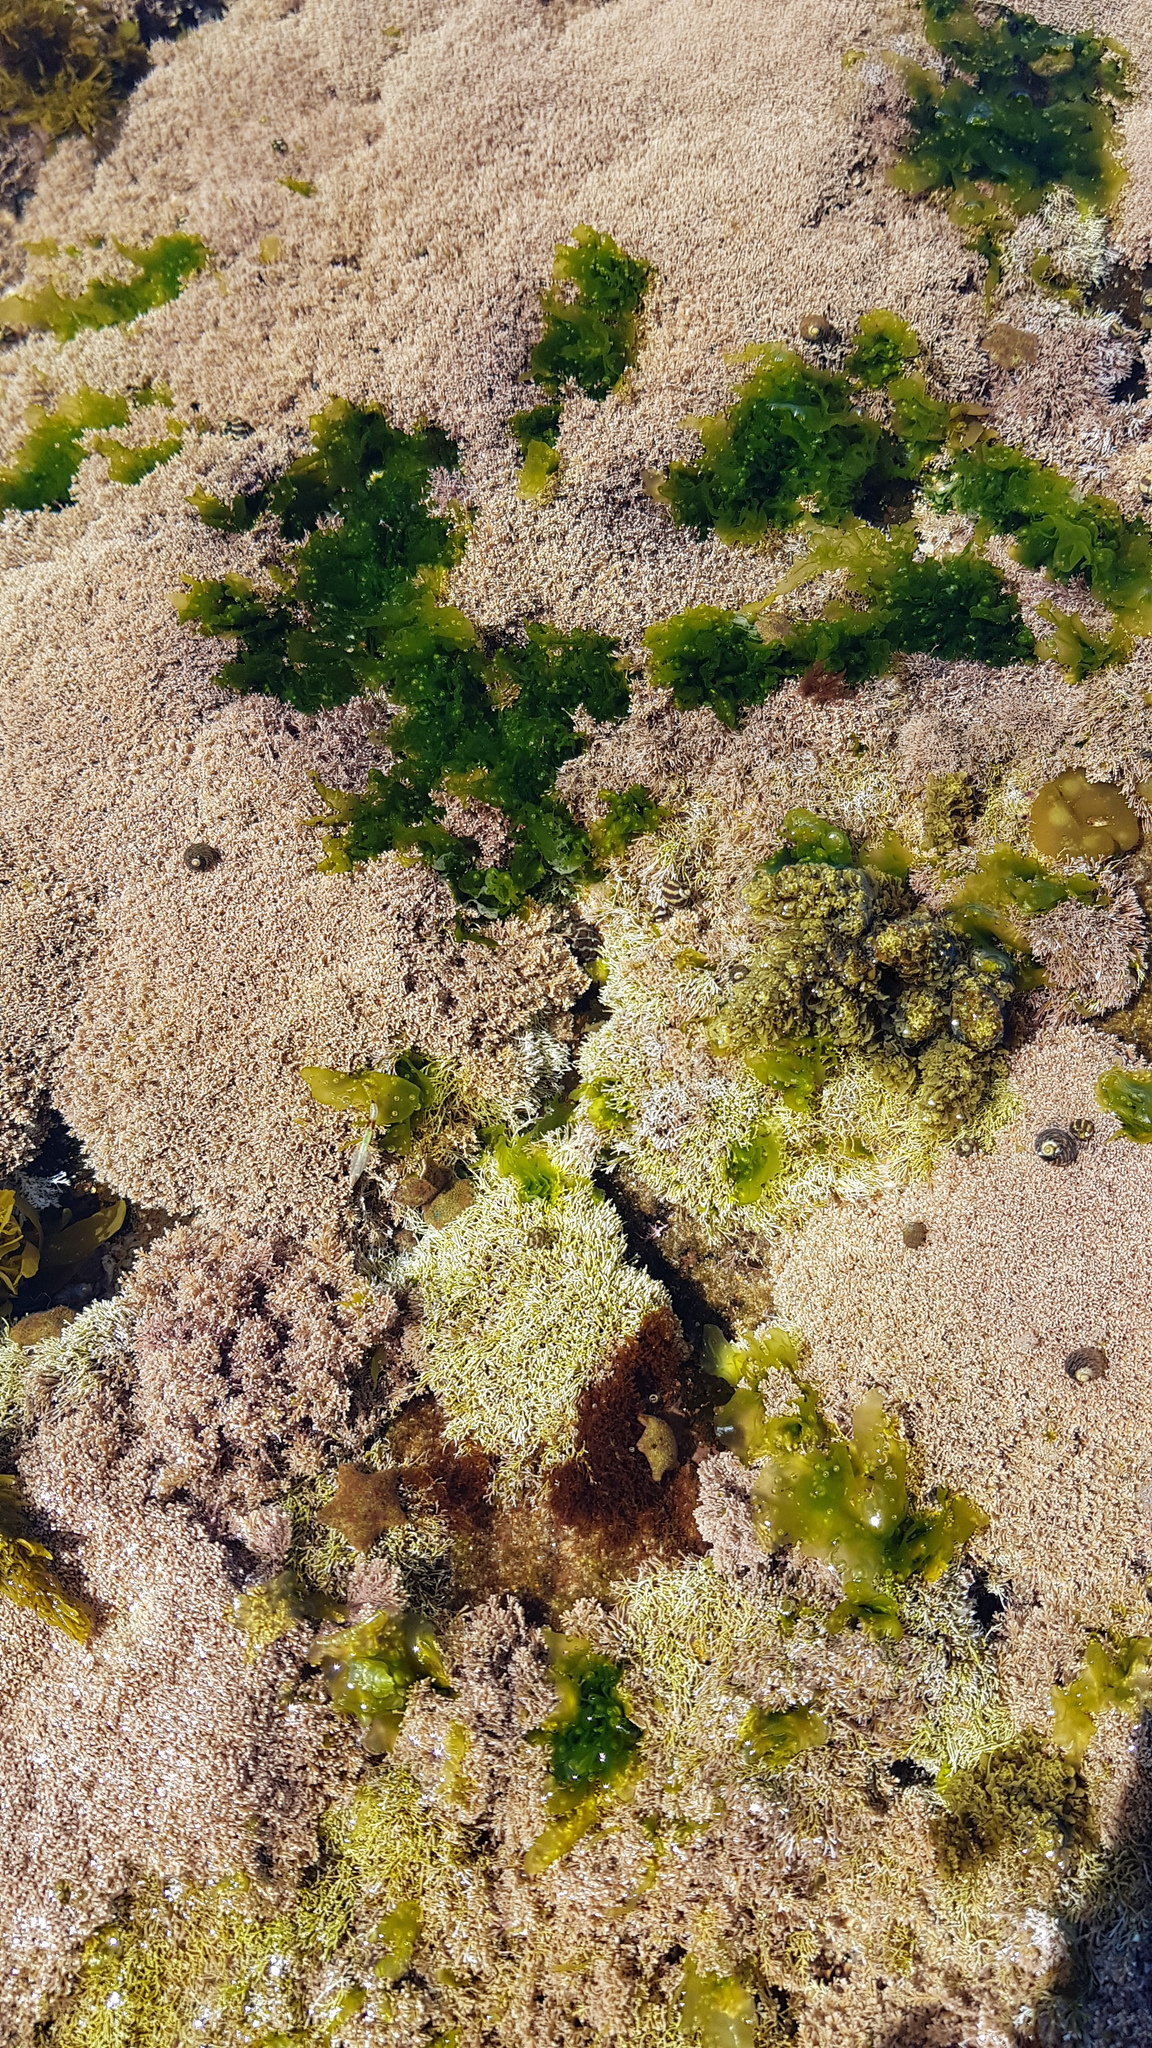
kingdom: Animalia
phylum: Echinodermata
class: Asteroidea
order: Valvatida
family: Asterinidae
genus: Parvulastra
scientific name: Parvulastra exigua
